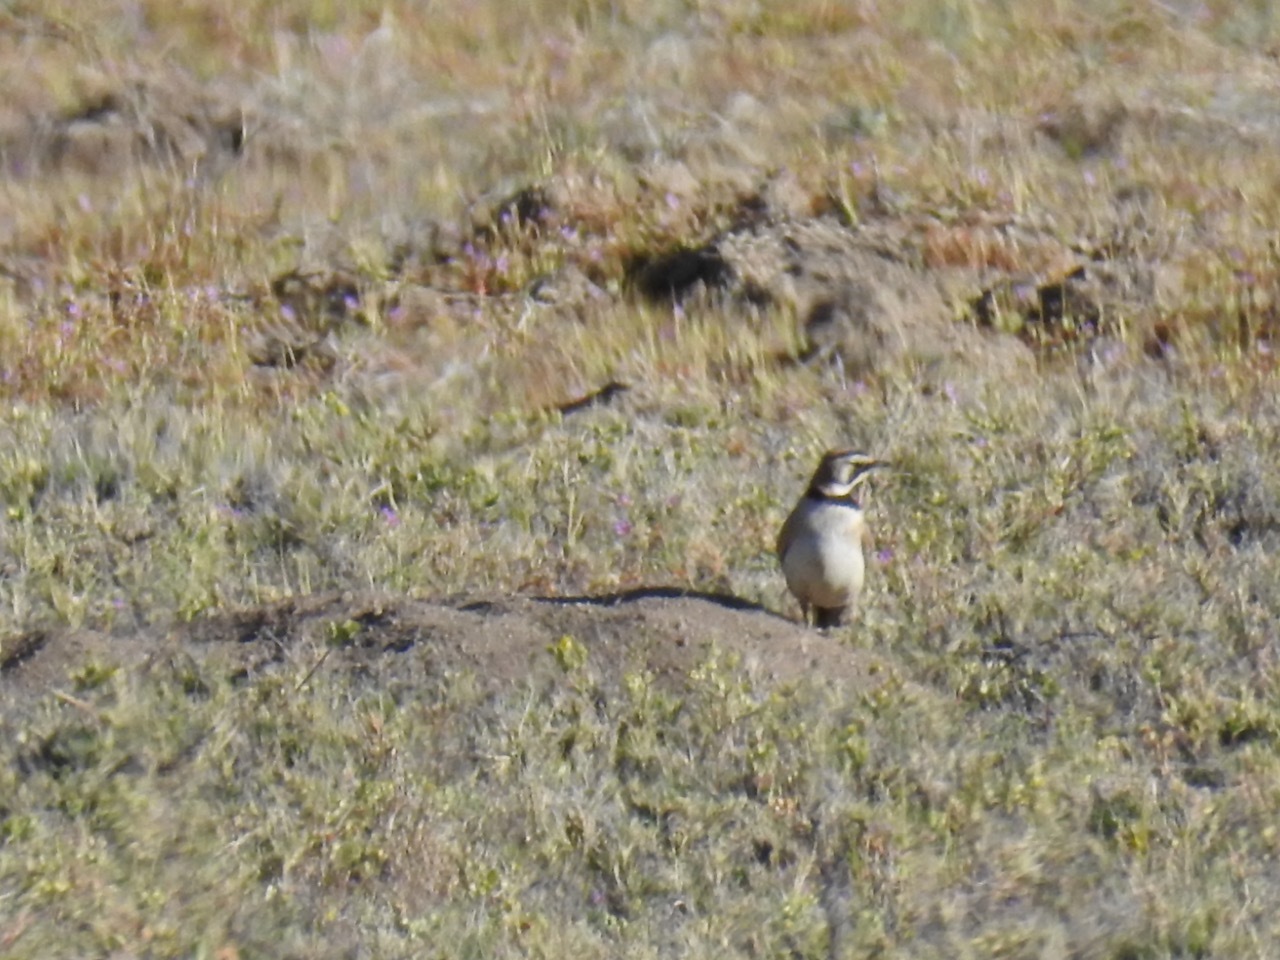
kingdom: Animalia
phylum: Chordata
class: Aves
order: Passeriformes
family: Alaudidae
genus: Eremophila
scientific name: Eremophila alpestris
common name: Horned lark
